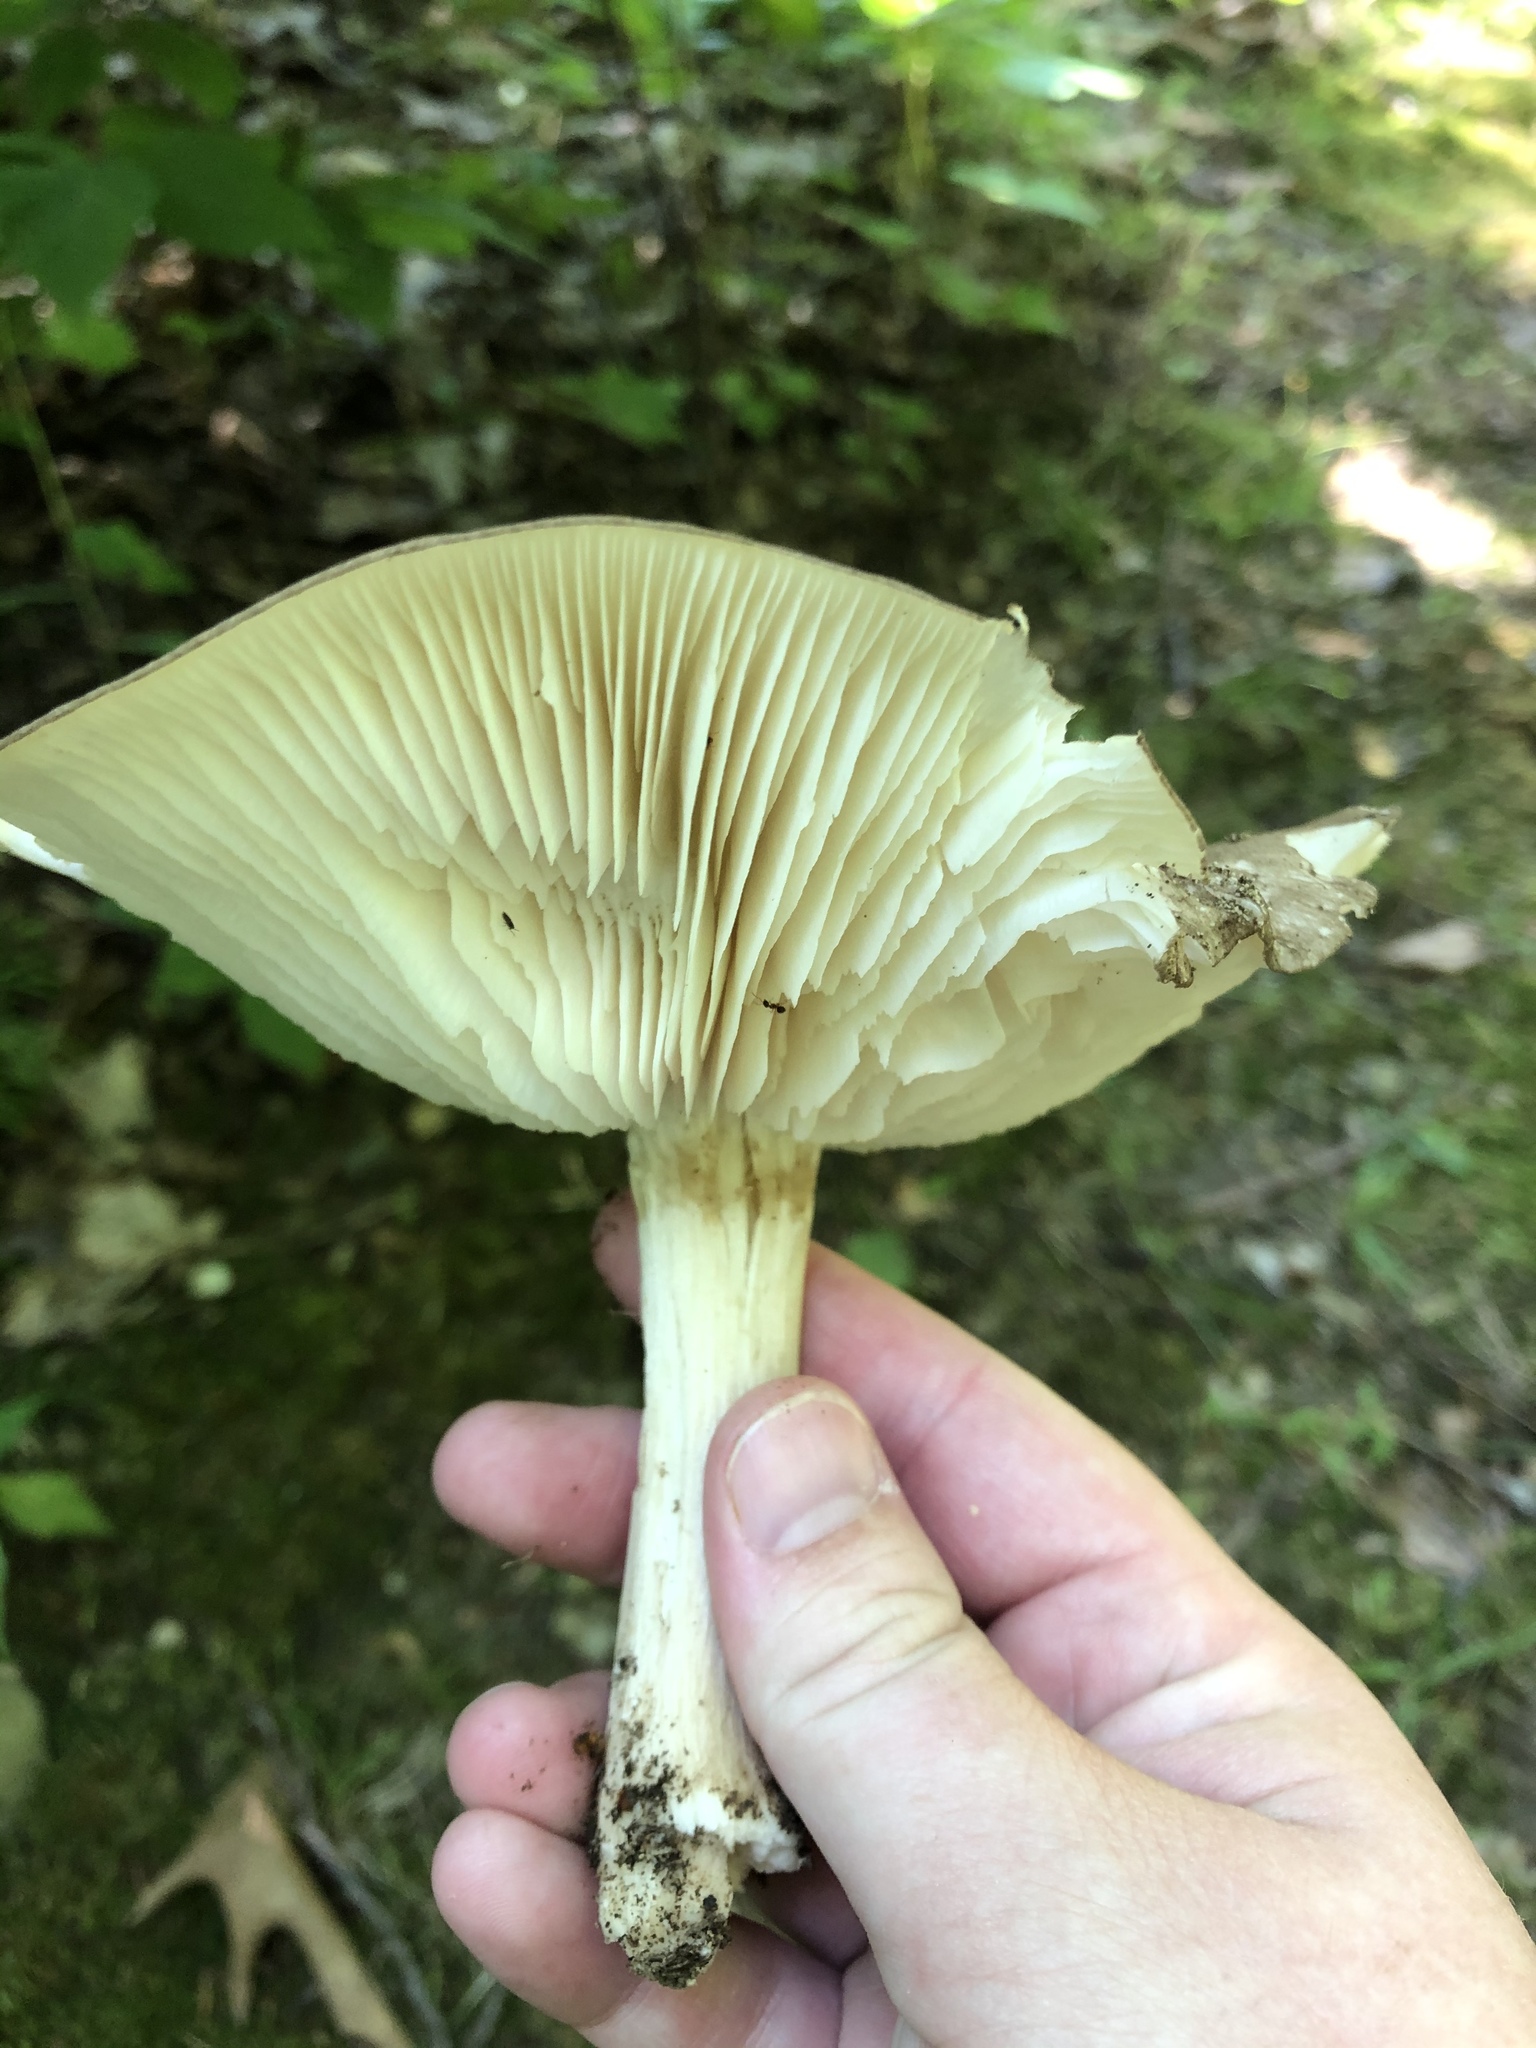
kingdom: Fungi
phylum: Basidiomycota
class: Agaricomycetes
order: Agaricales
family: Tricholomataceae
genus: Megacollybia
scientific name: Megacollybia rodmanii
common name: Eastern american platterful mushroom
